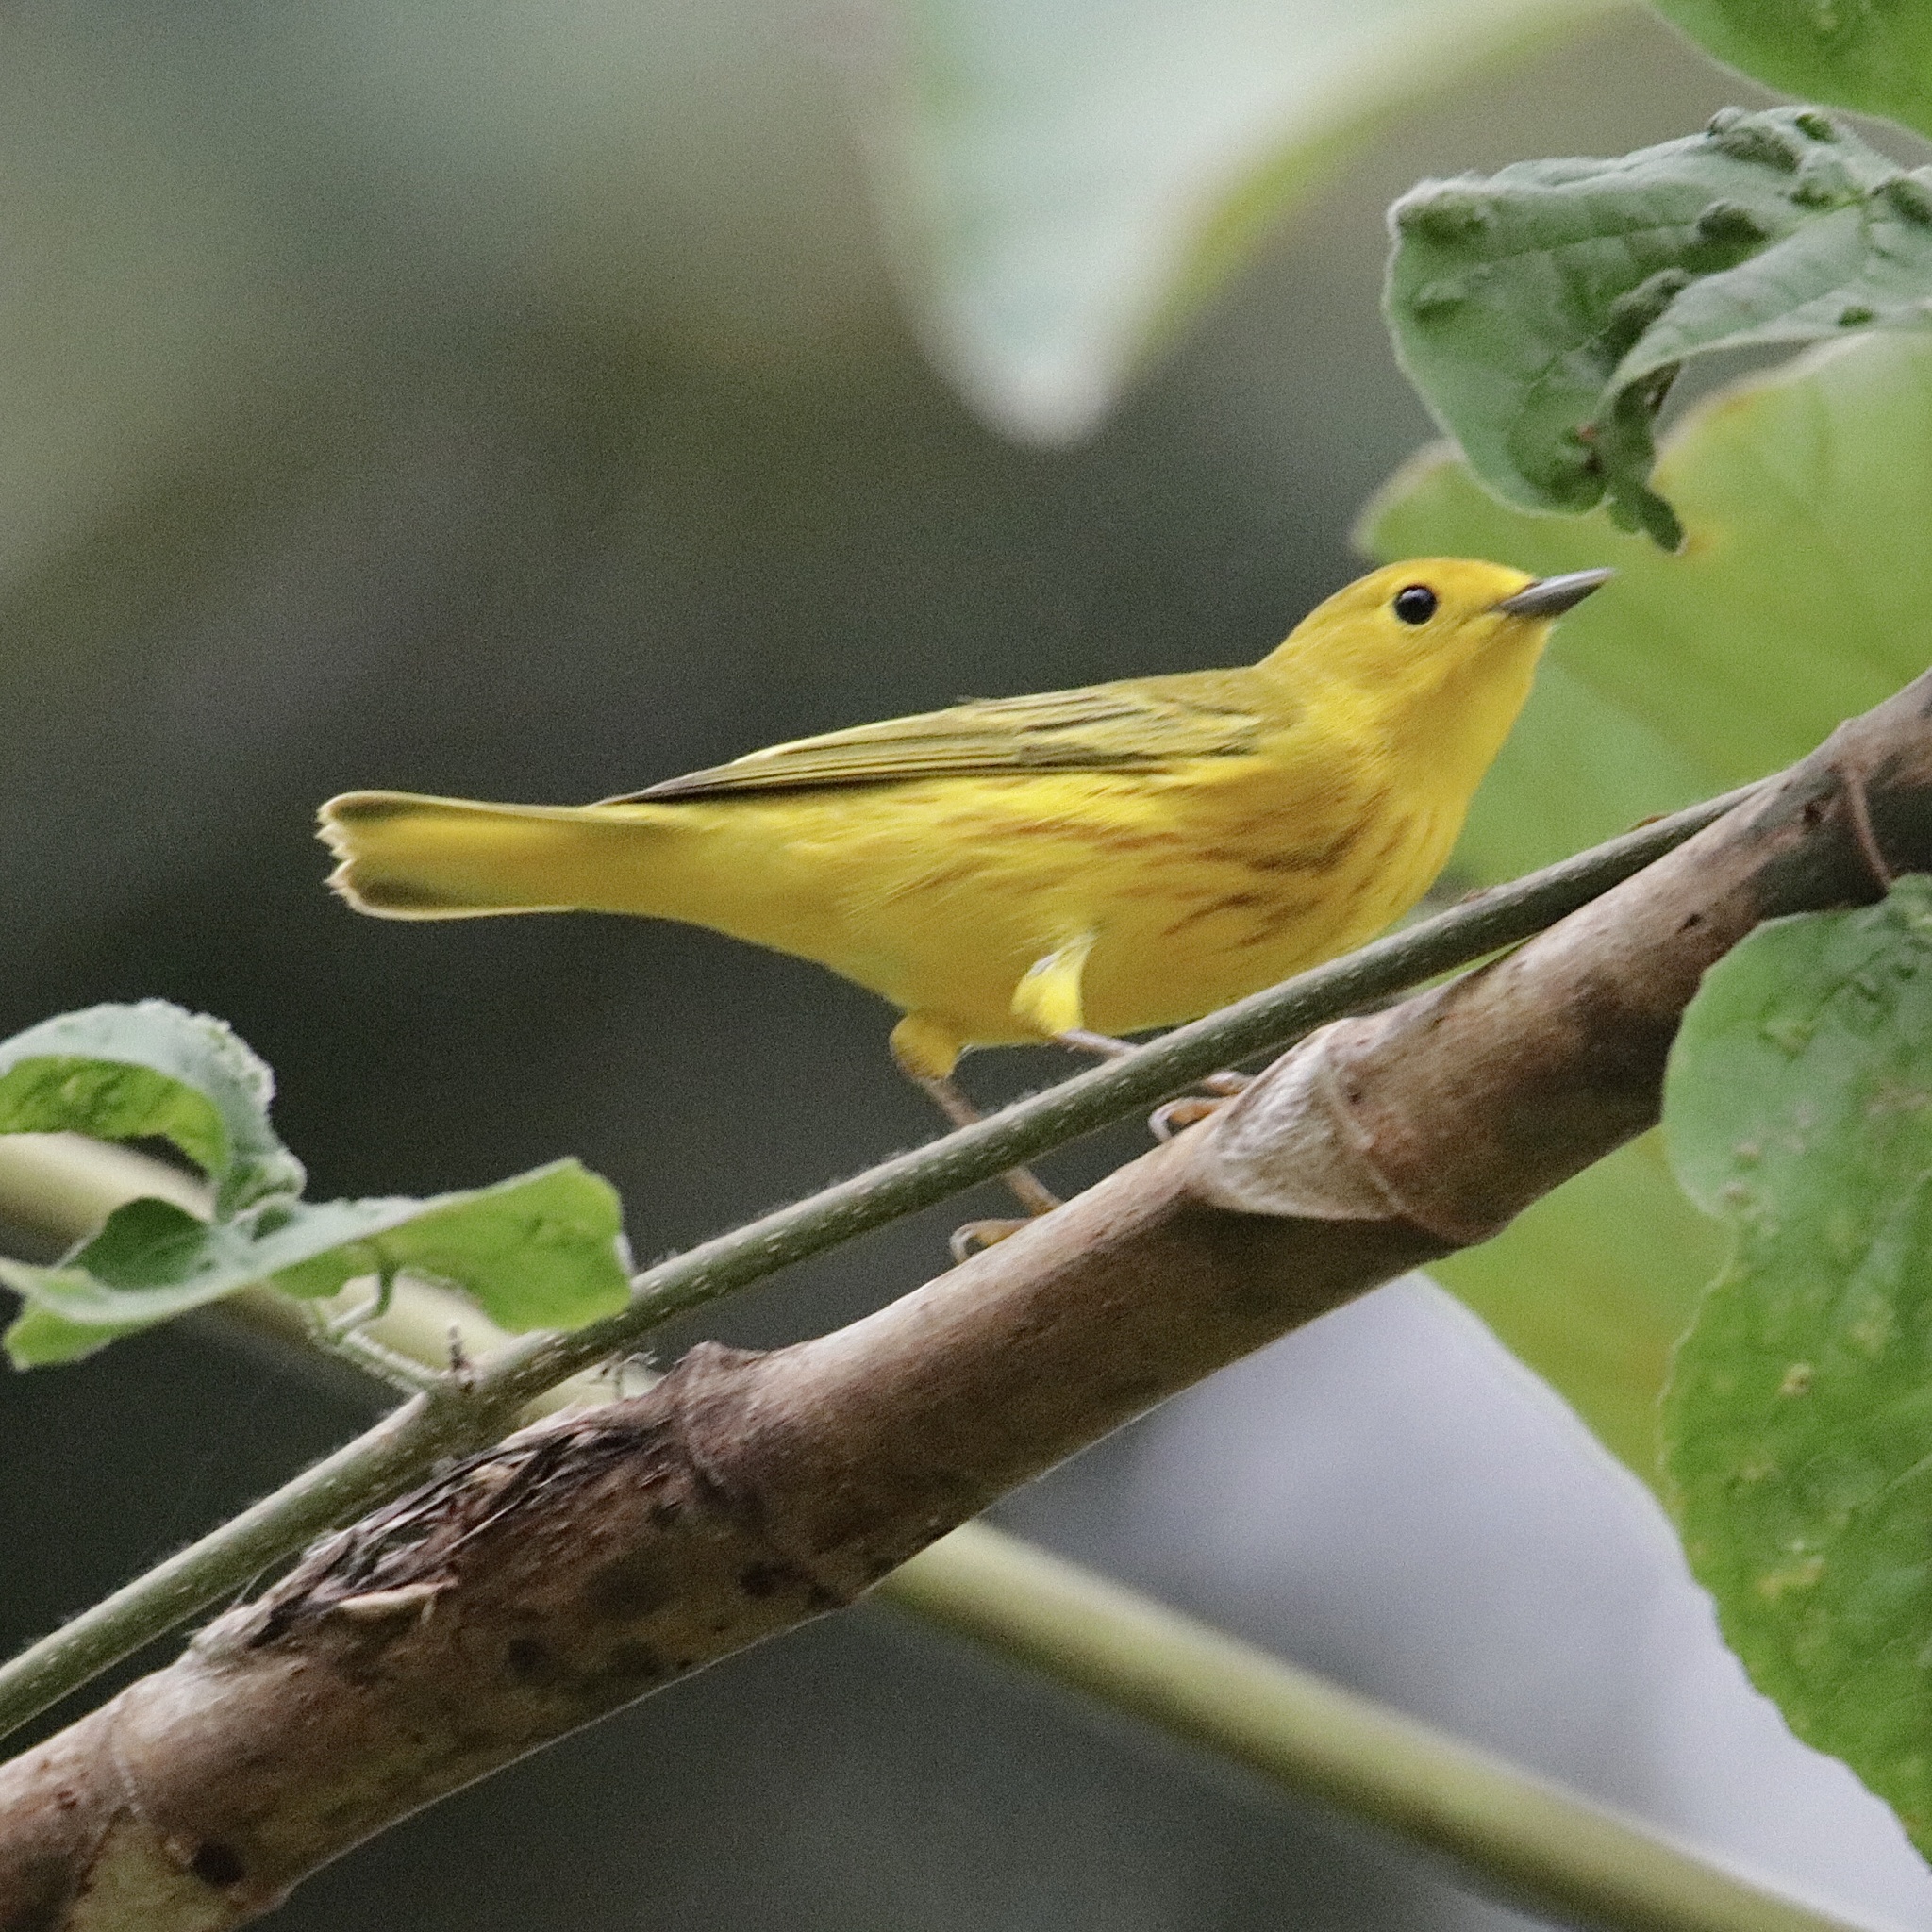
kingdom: Animalia
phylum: Chordata
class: Aves
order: Passeriformes
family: Parulidae
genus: Setophaga
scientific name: Setophaga petechia
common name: Yellow warbler
